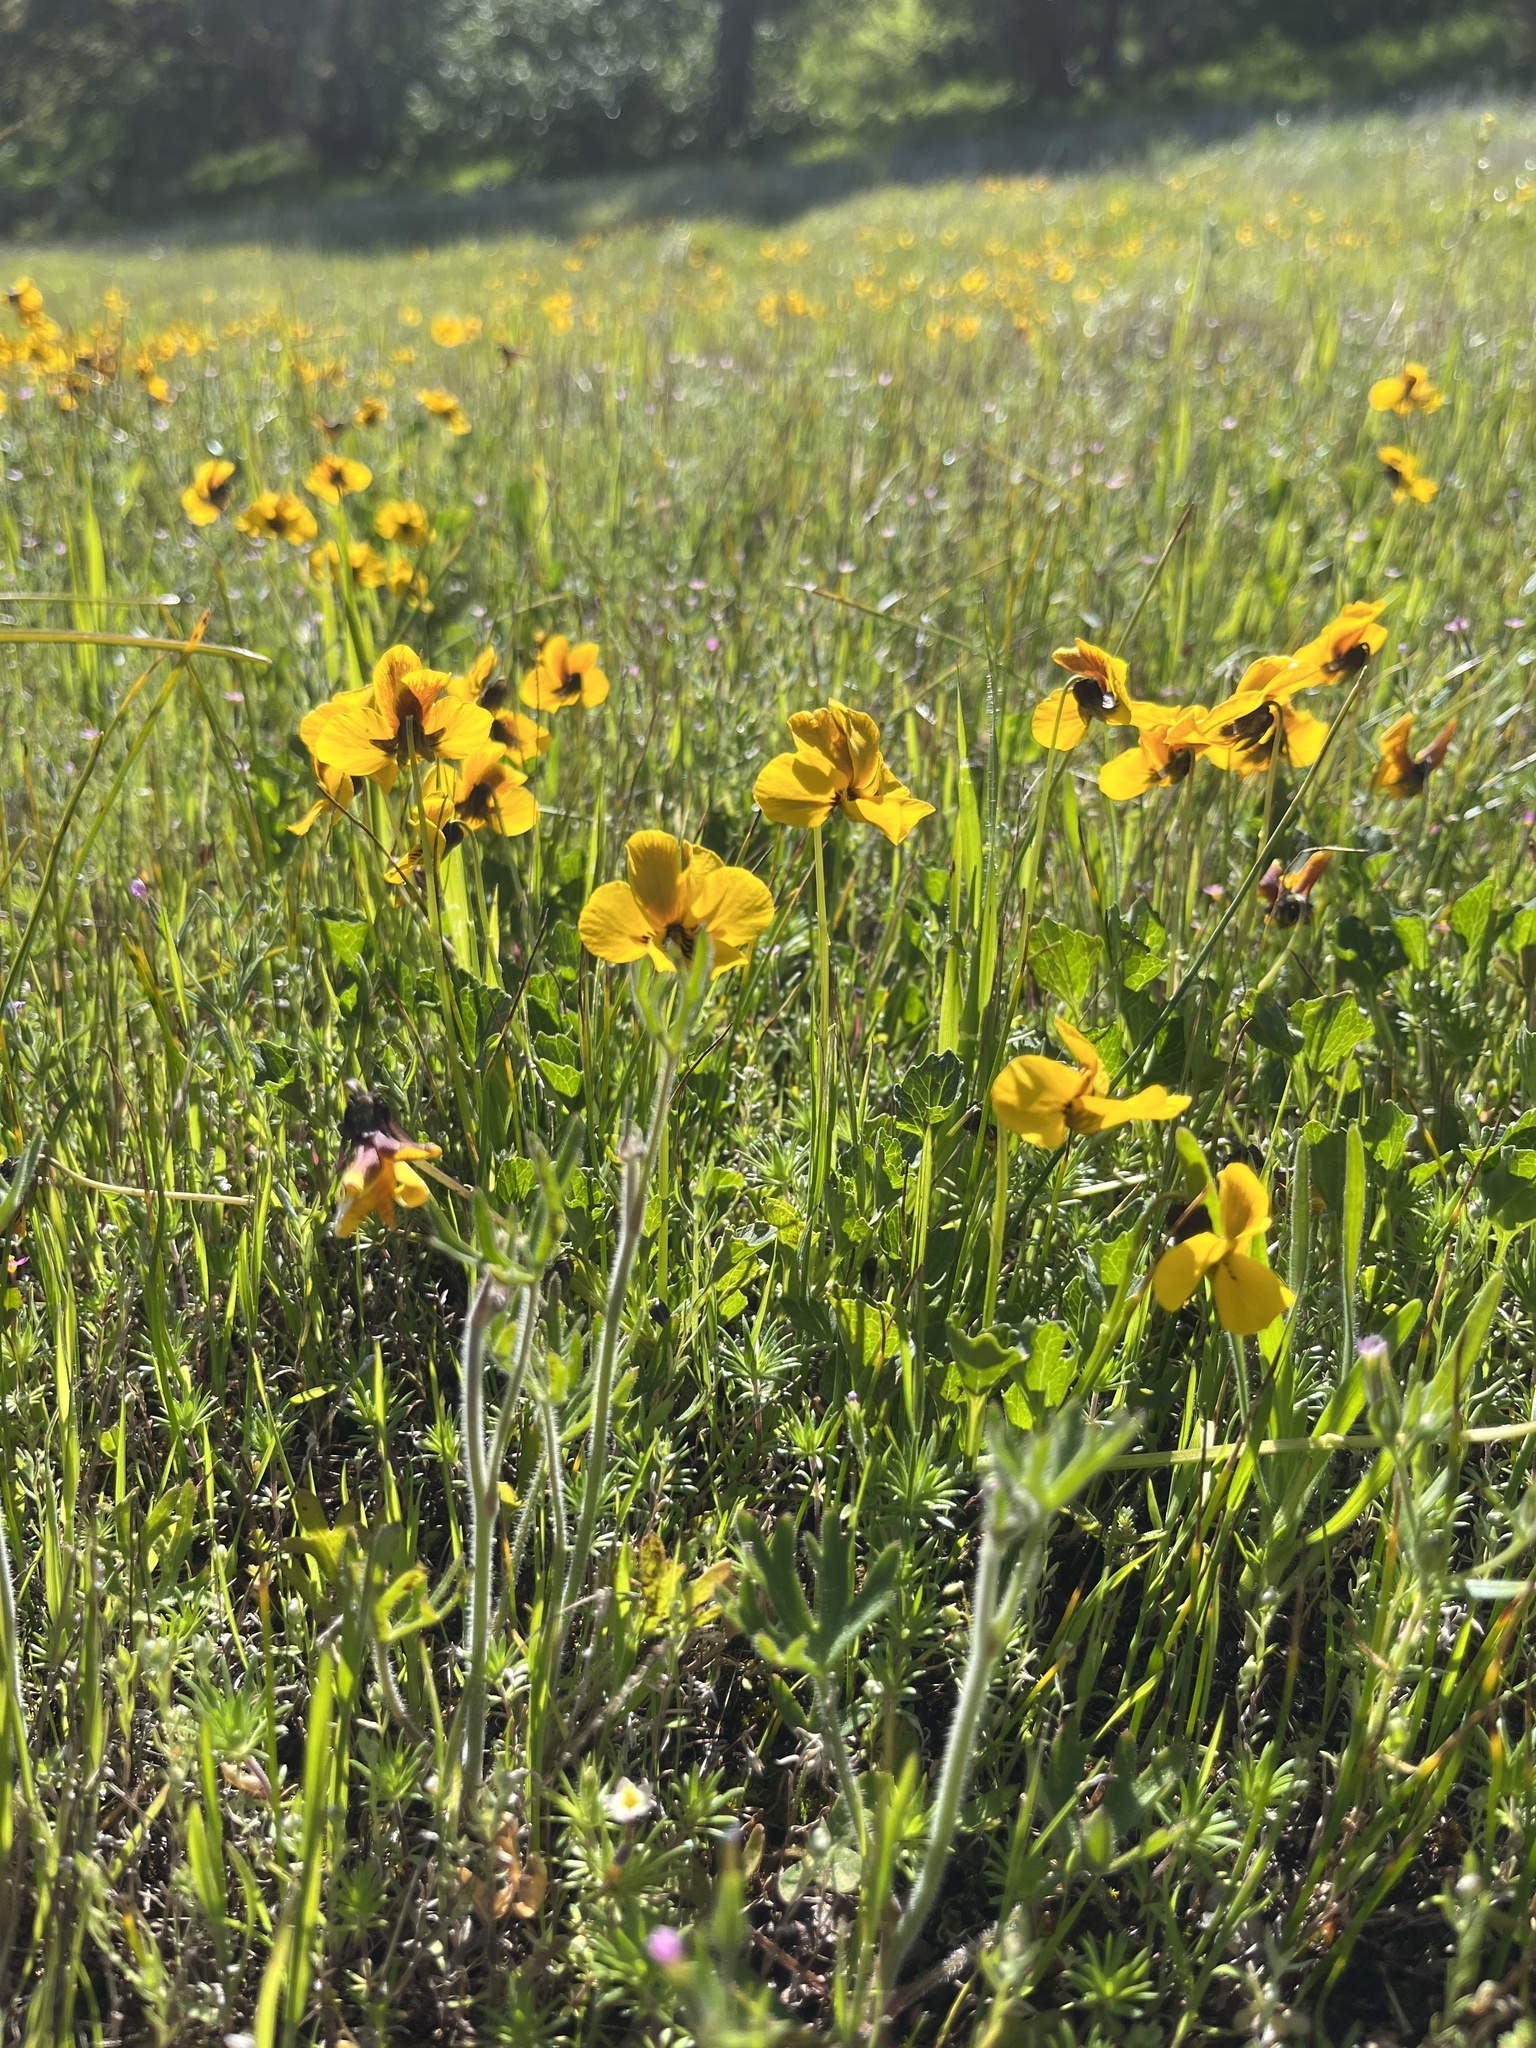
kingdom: Plantae
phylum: Tracheophyta
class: Magnoliopsida
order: Malpighiales
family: Violaceae
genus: Viola
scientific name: Viola pedunculata
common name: California golden violet
